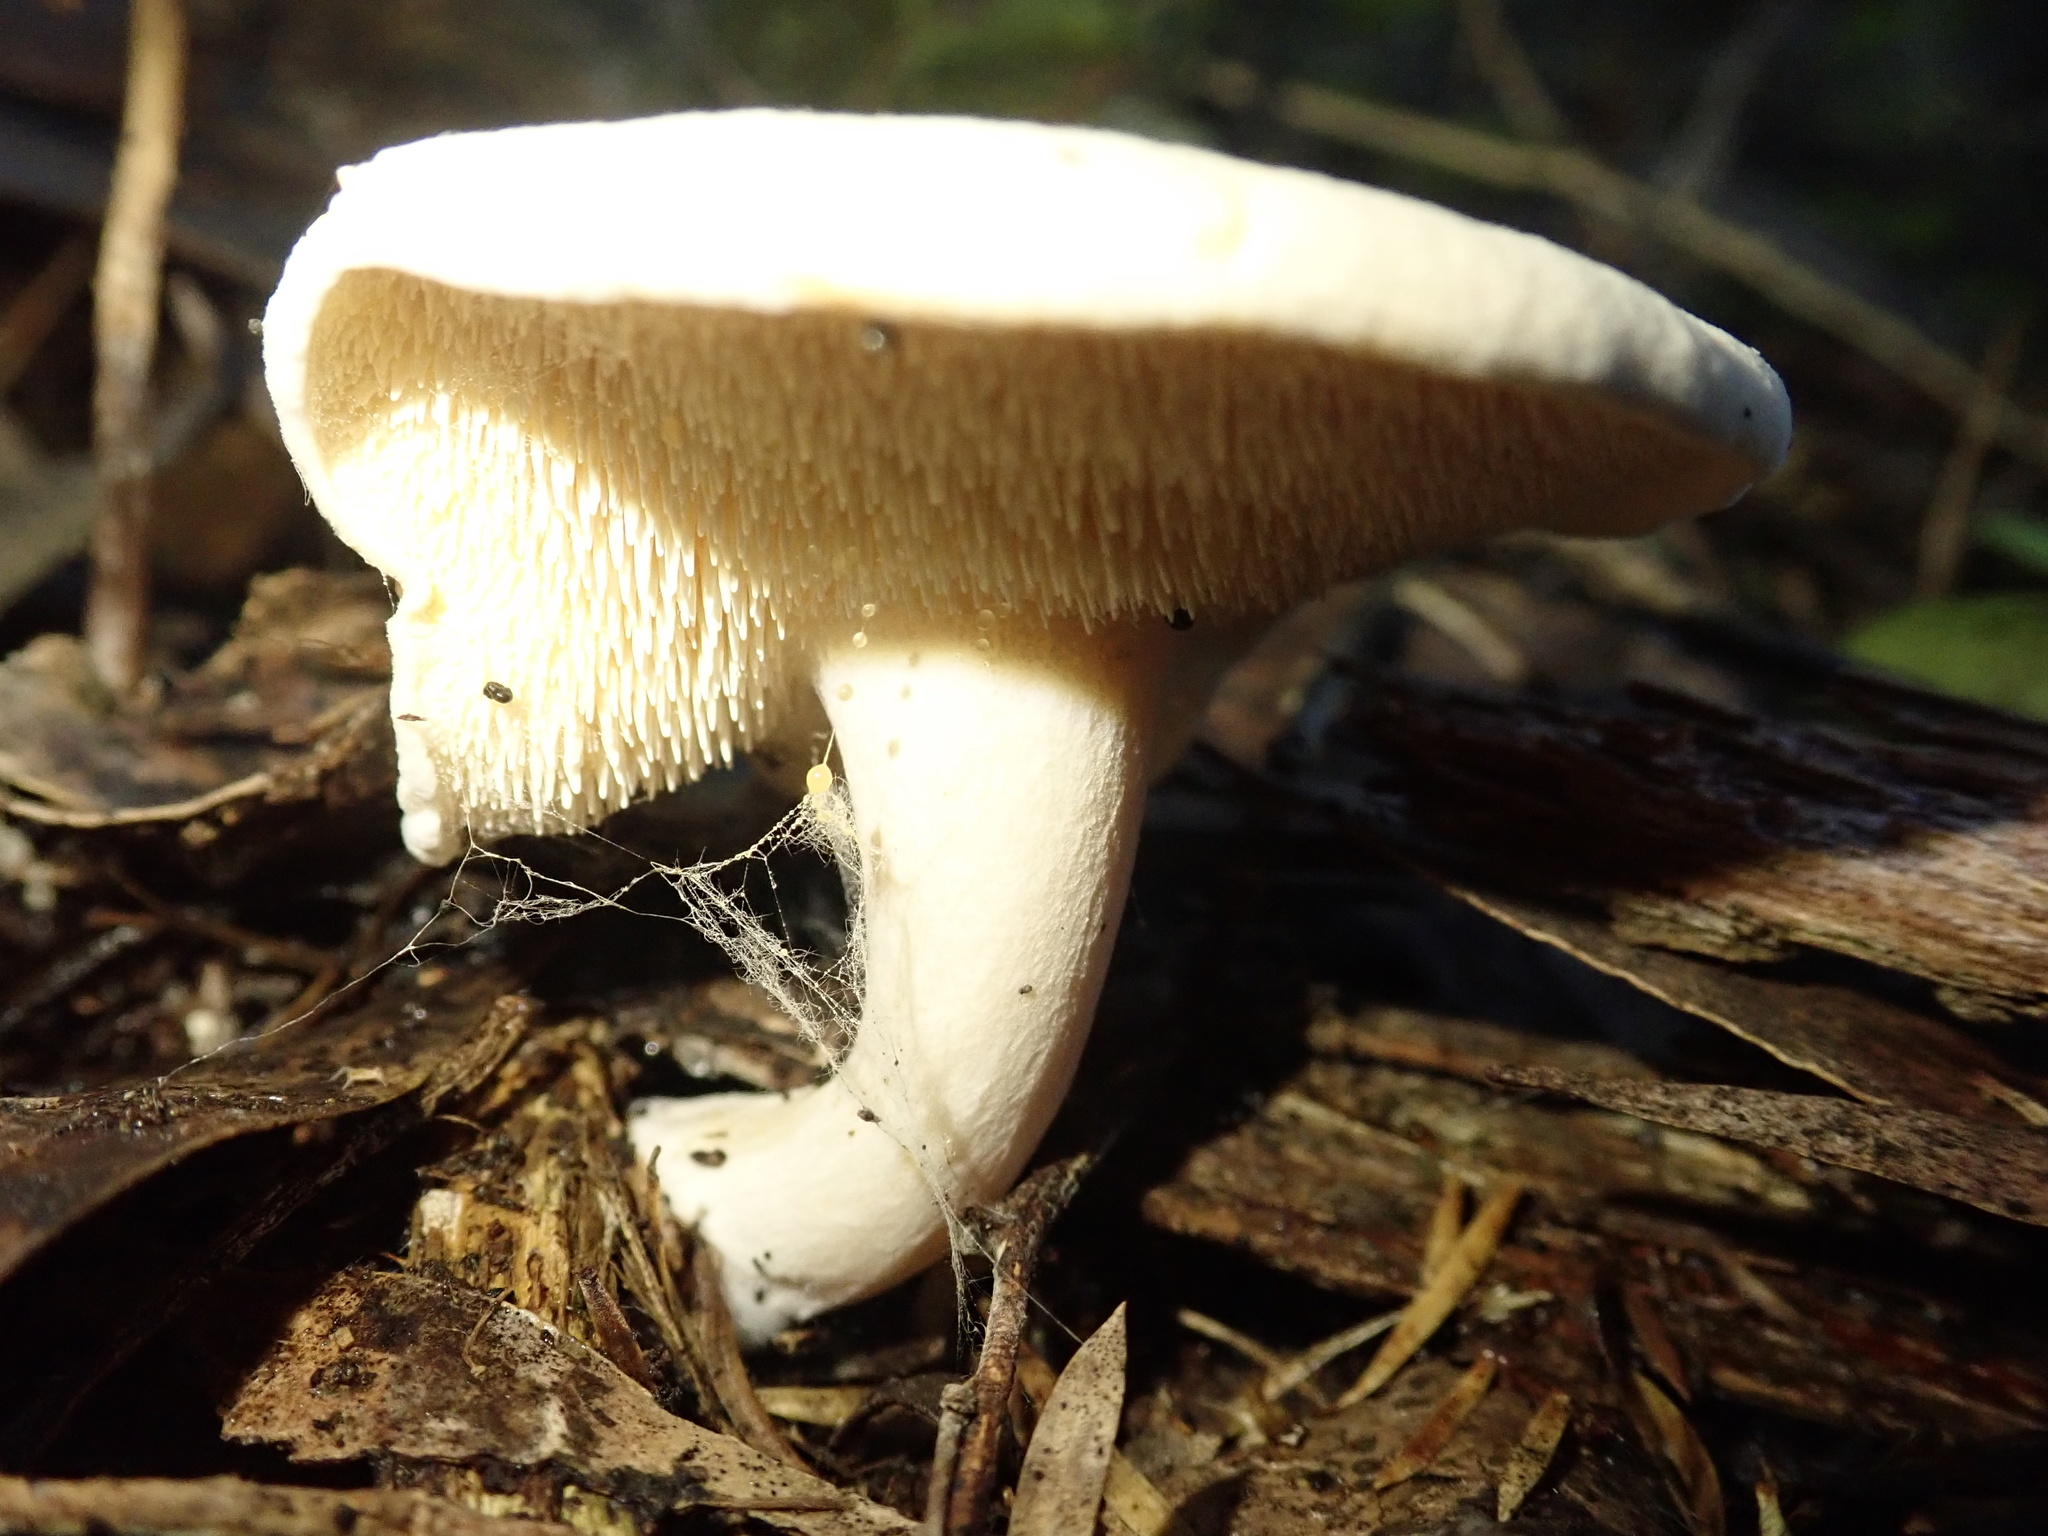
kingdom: Fungi
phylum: Basidiomycota
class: Agaricomycetes
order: Cantharellales
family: Hydnaceae
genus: Hydnum
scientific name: Hydnum repandum
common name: Wood hedgehog
